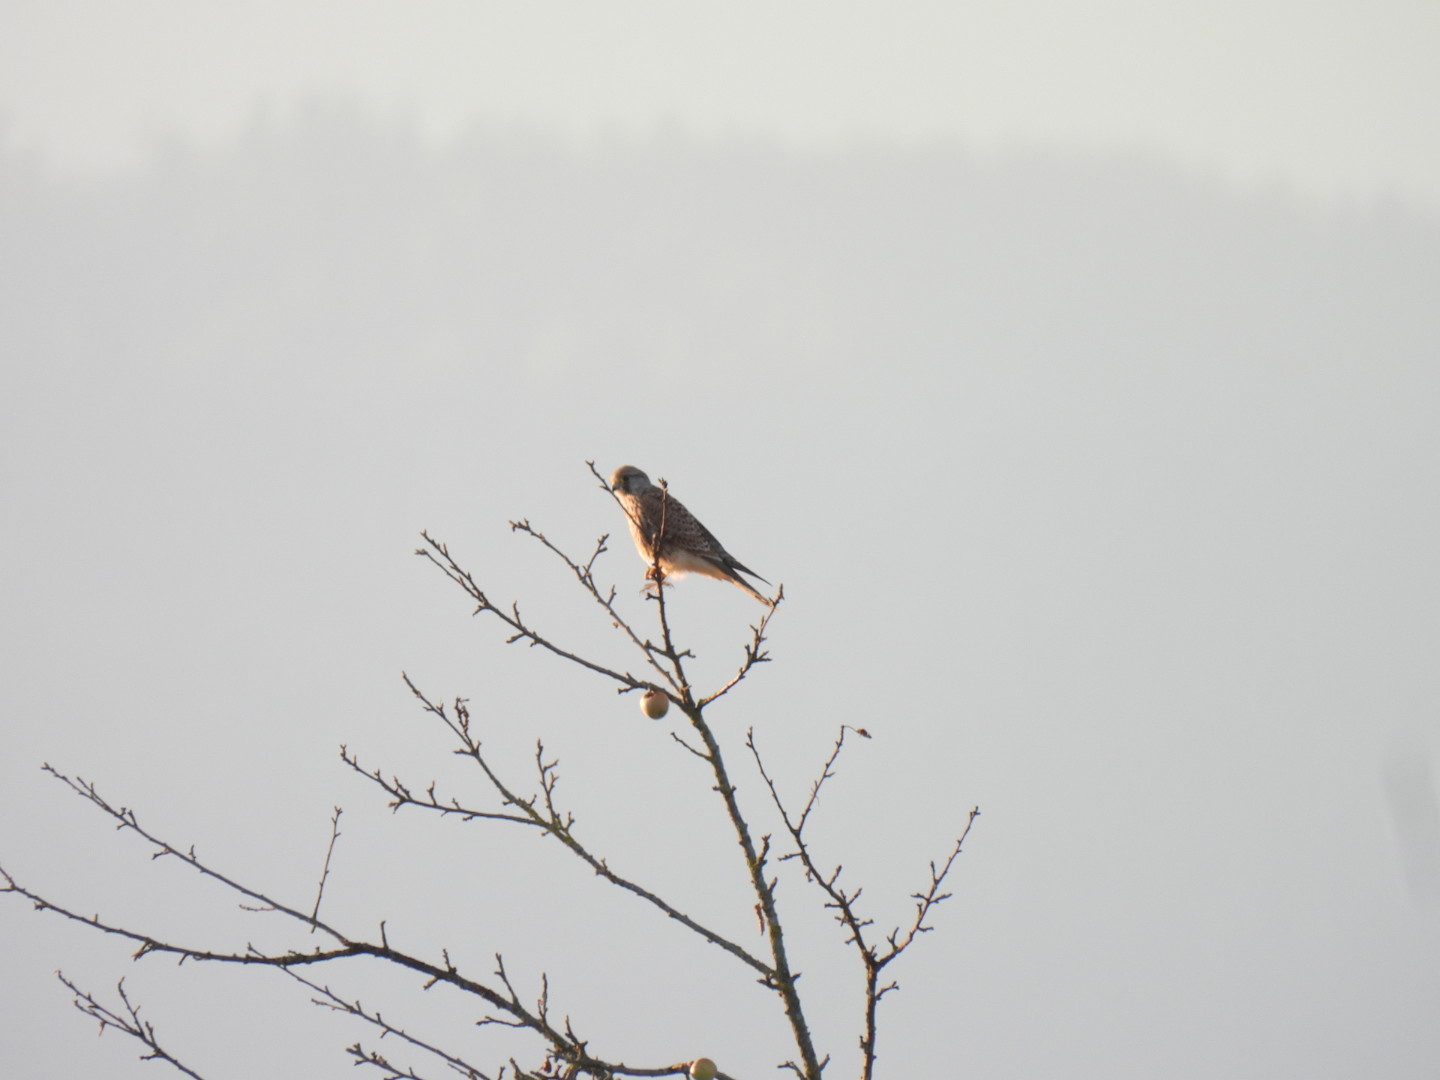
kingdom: Animalia
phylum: Chordata
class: Aves
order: Falconiformes
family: Falconidae
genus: Falco
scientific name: Falco tinnunculus
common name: Common kestrel
